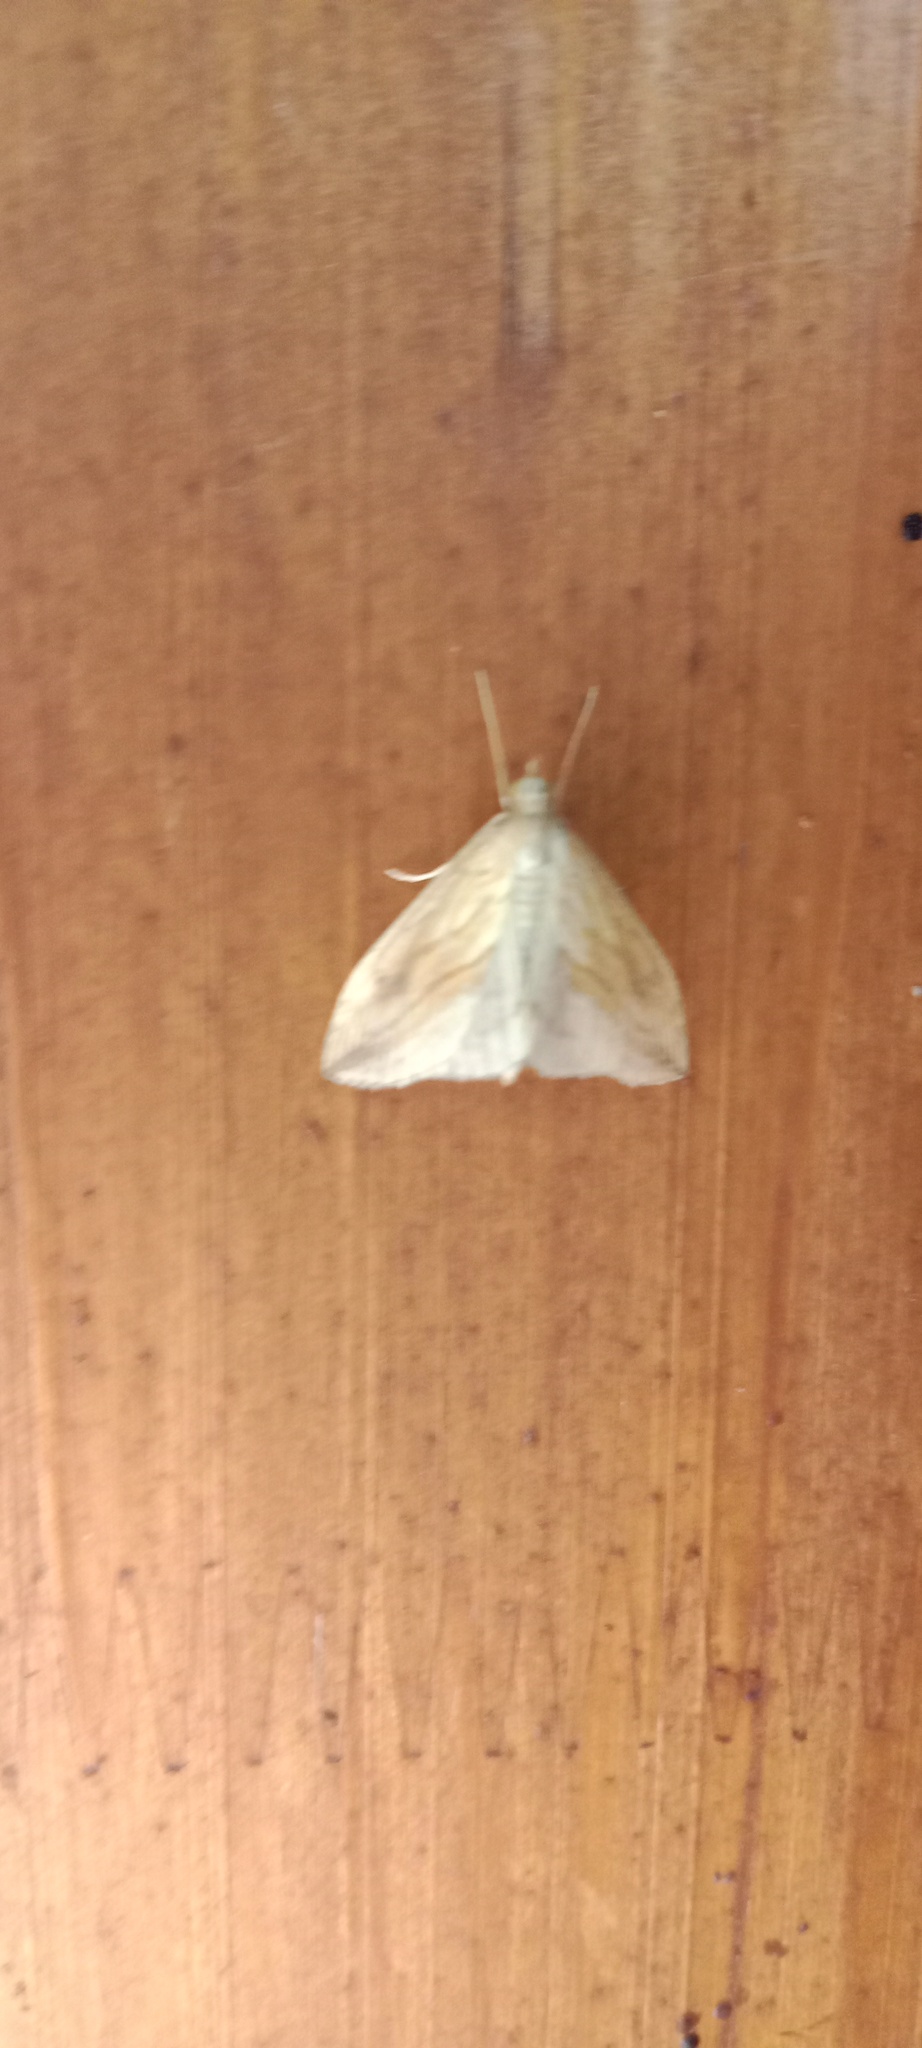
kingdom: Animalia
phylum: Arthropoda
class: Insecta
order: Lepidoptera
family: Crambidae
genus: Evergestis
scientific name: Evergestis forficalis
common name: Garden pebble
